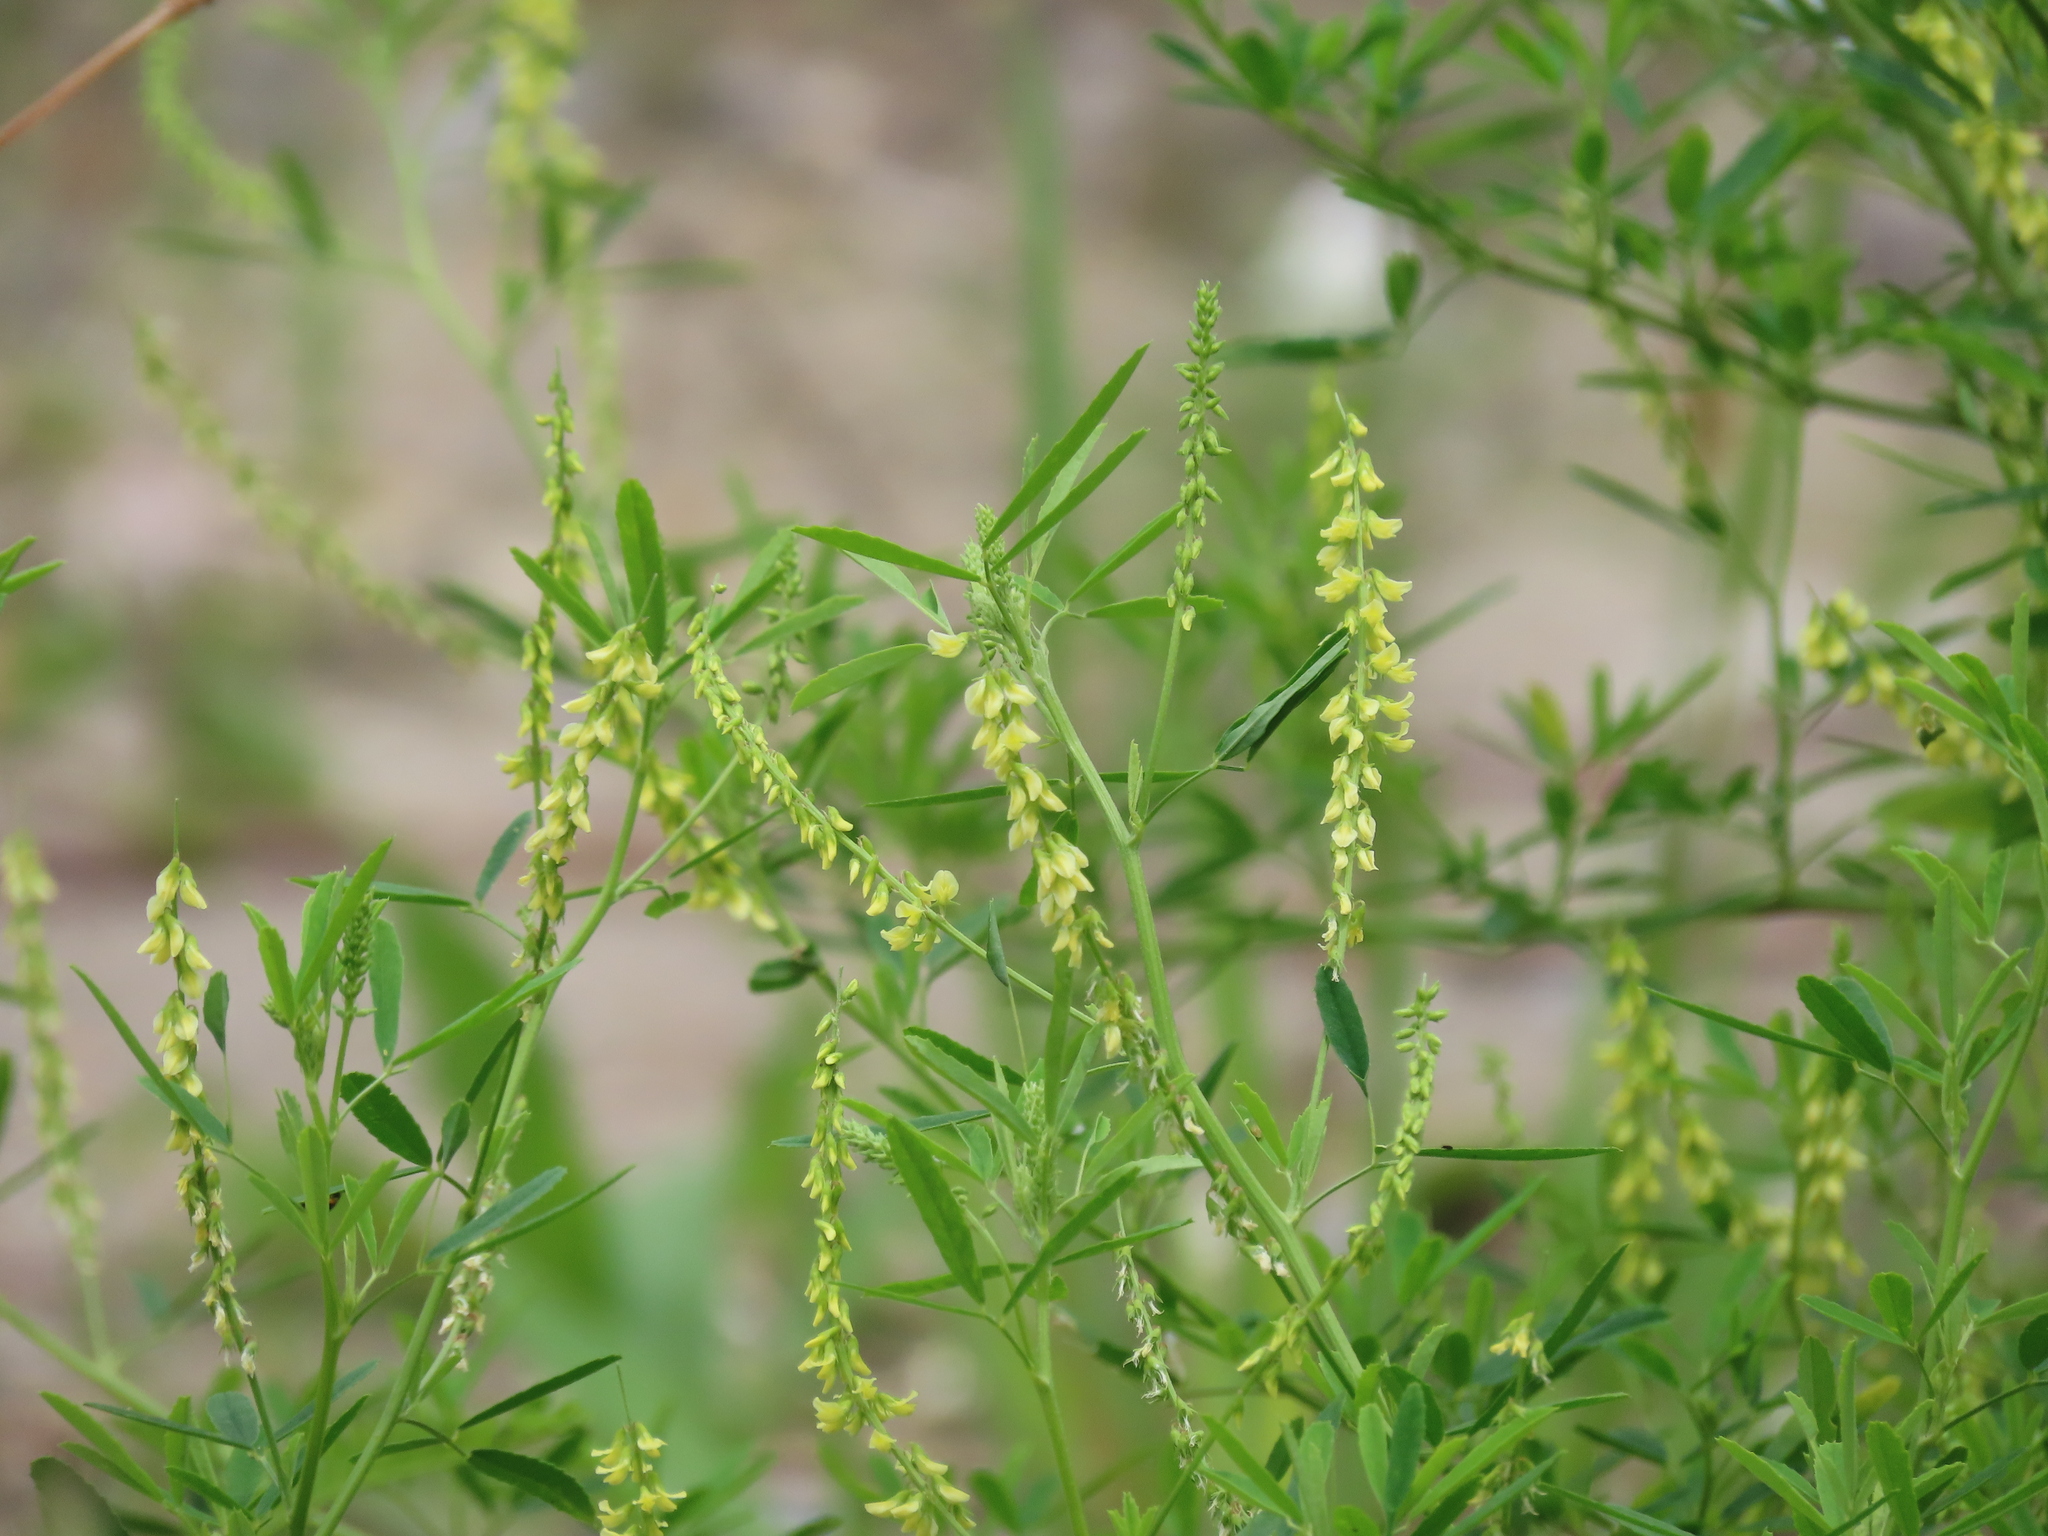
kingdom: Plantae
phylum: Tracheophyta
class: Magnoliopsida
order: Fabales
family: Fabaceae
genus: Melilotus
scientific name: Melilotus indicus
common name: Small melilot
